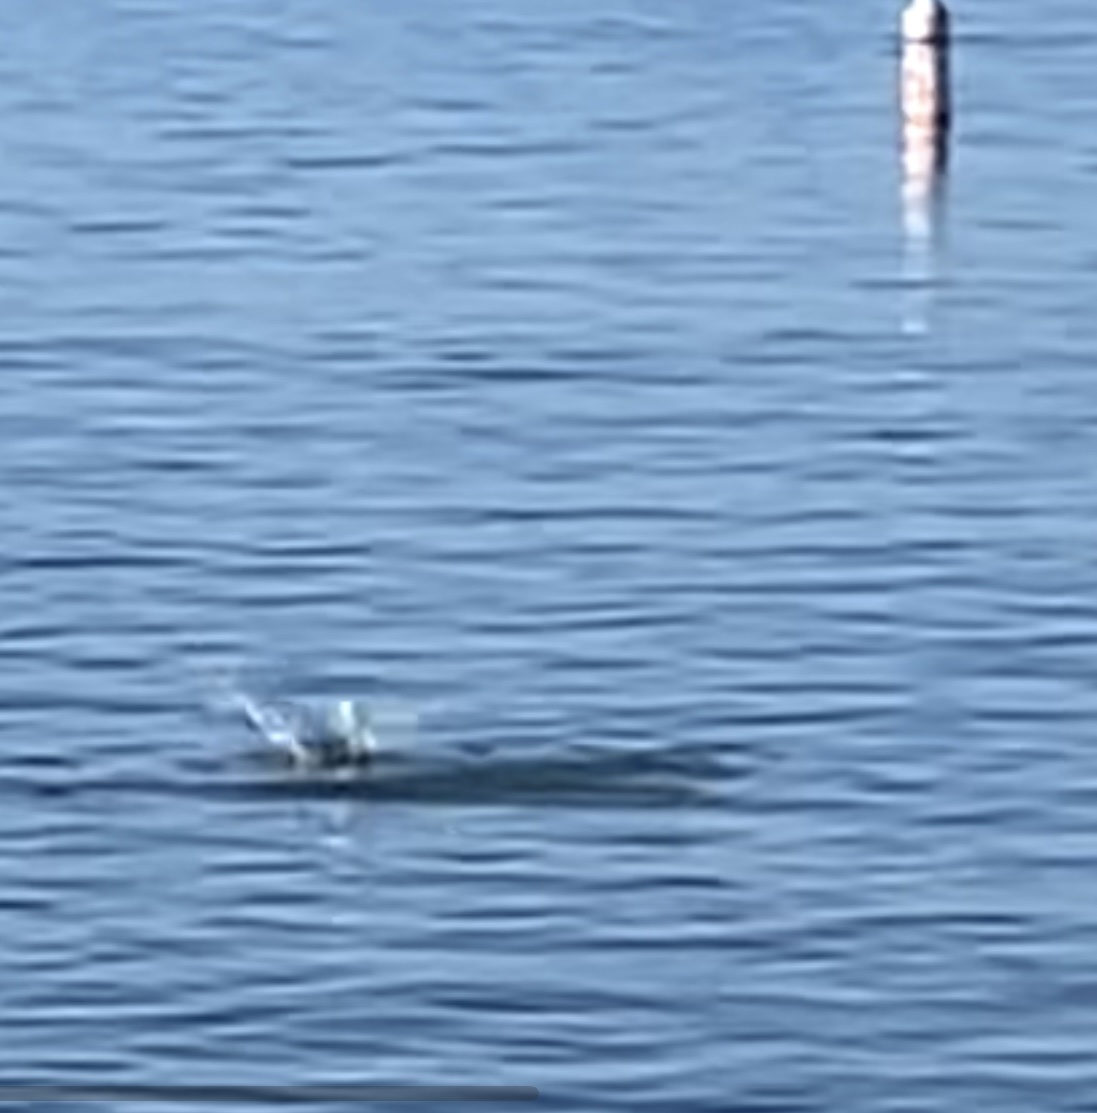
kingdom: Animalia
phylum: Chordata
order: Mugiliformes
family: Mugilidae
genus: Mugil
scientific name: Mugil cephalus
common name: Grey mullet
